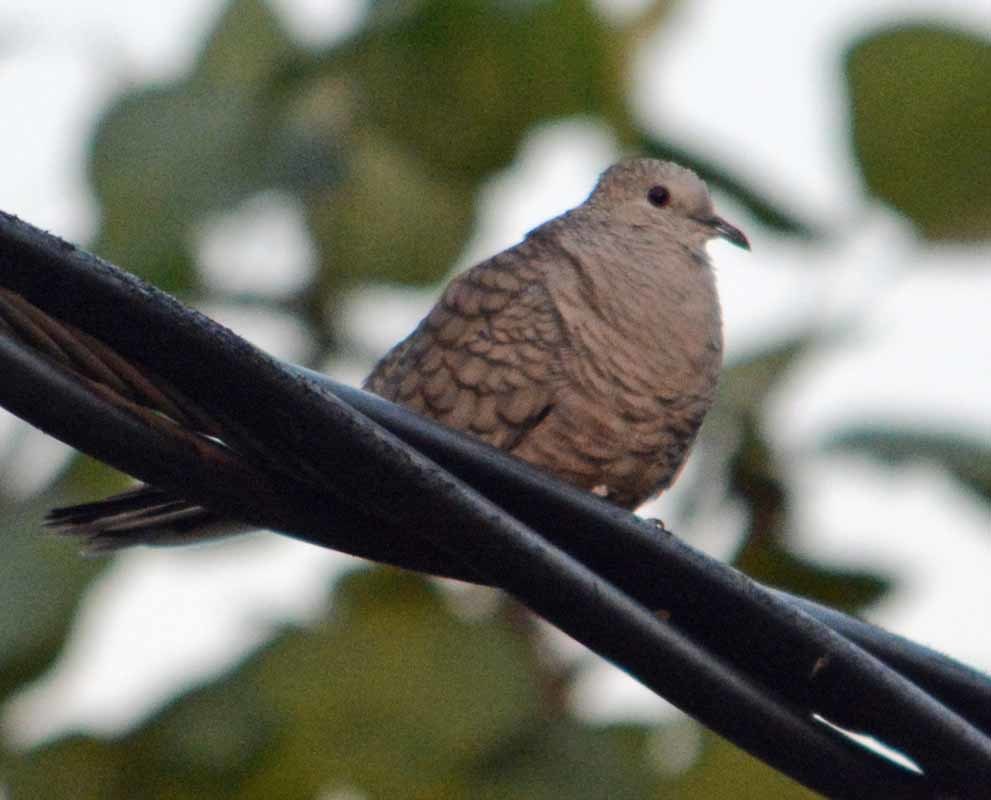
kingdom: Animalia
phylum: Chordata
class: Aves
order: Columbiformes
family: Columbidae
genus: Columbina
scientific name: Columbina inca
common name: Inca dove
